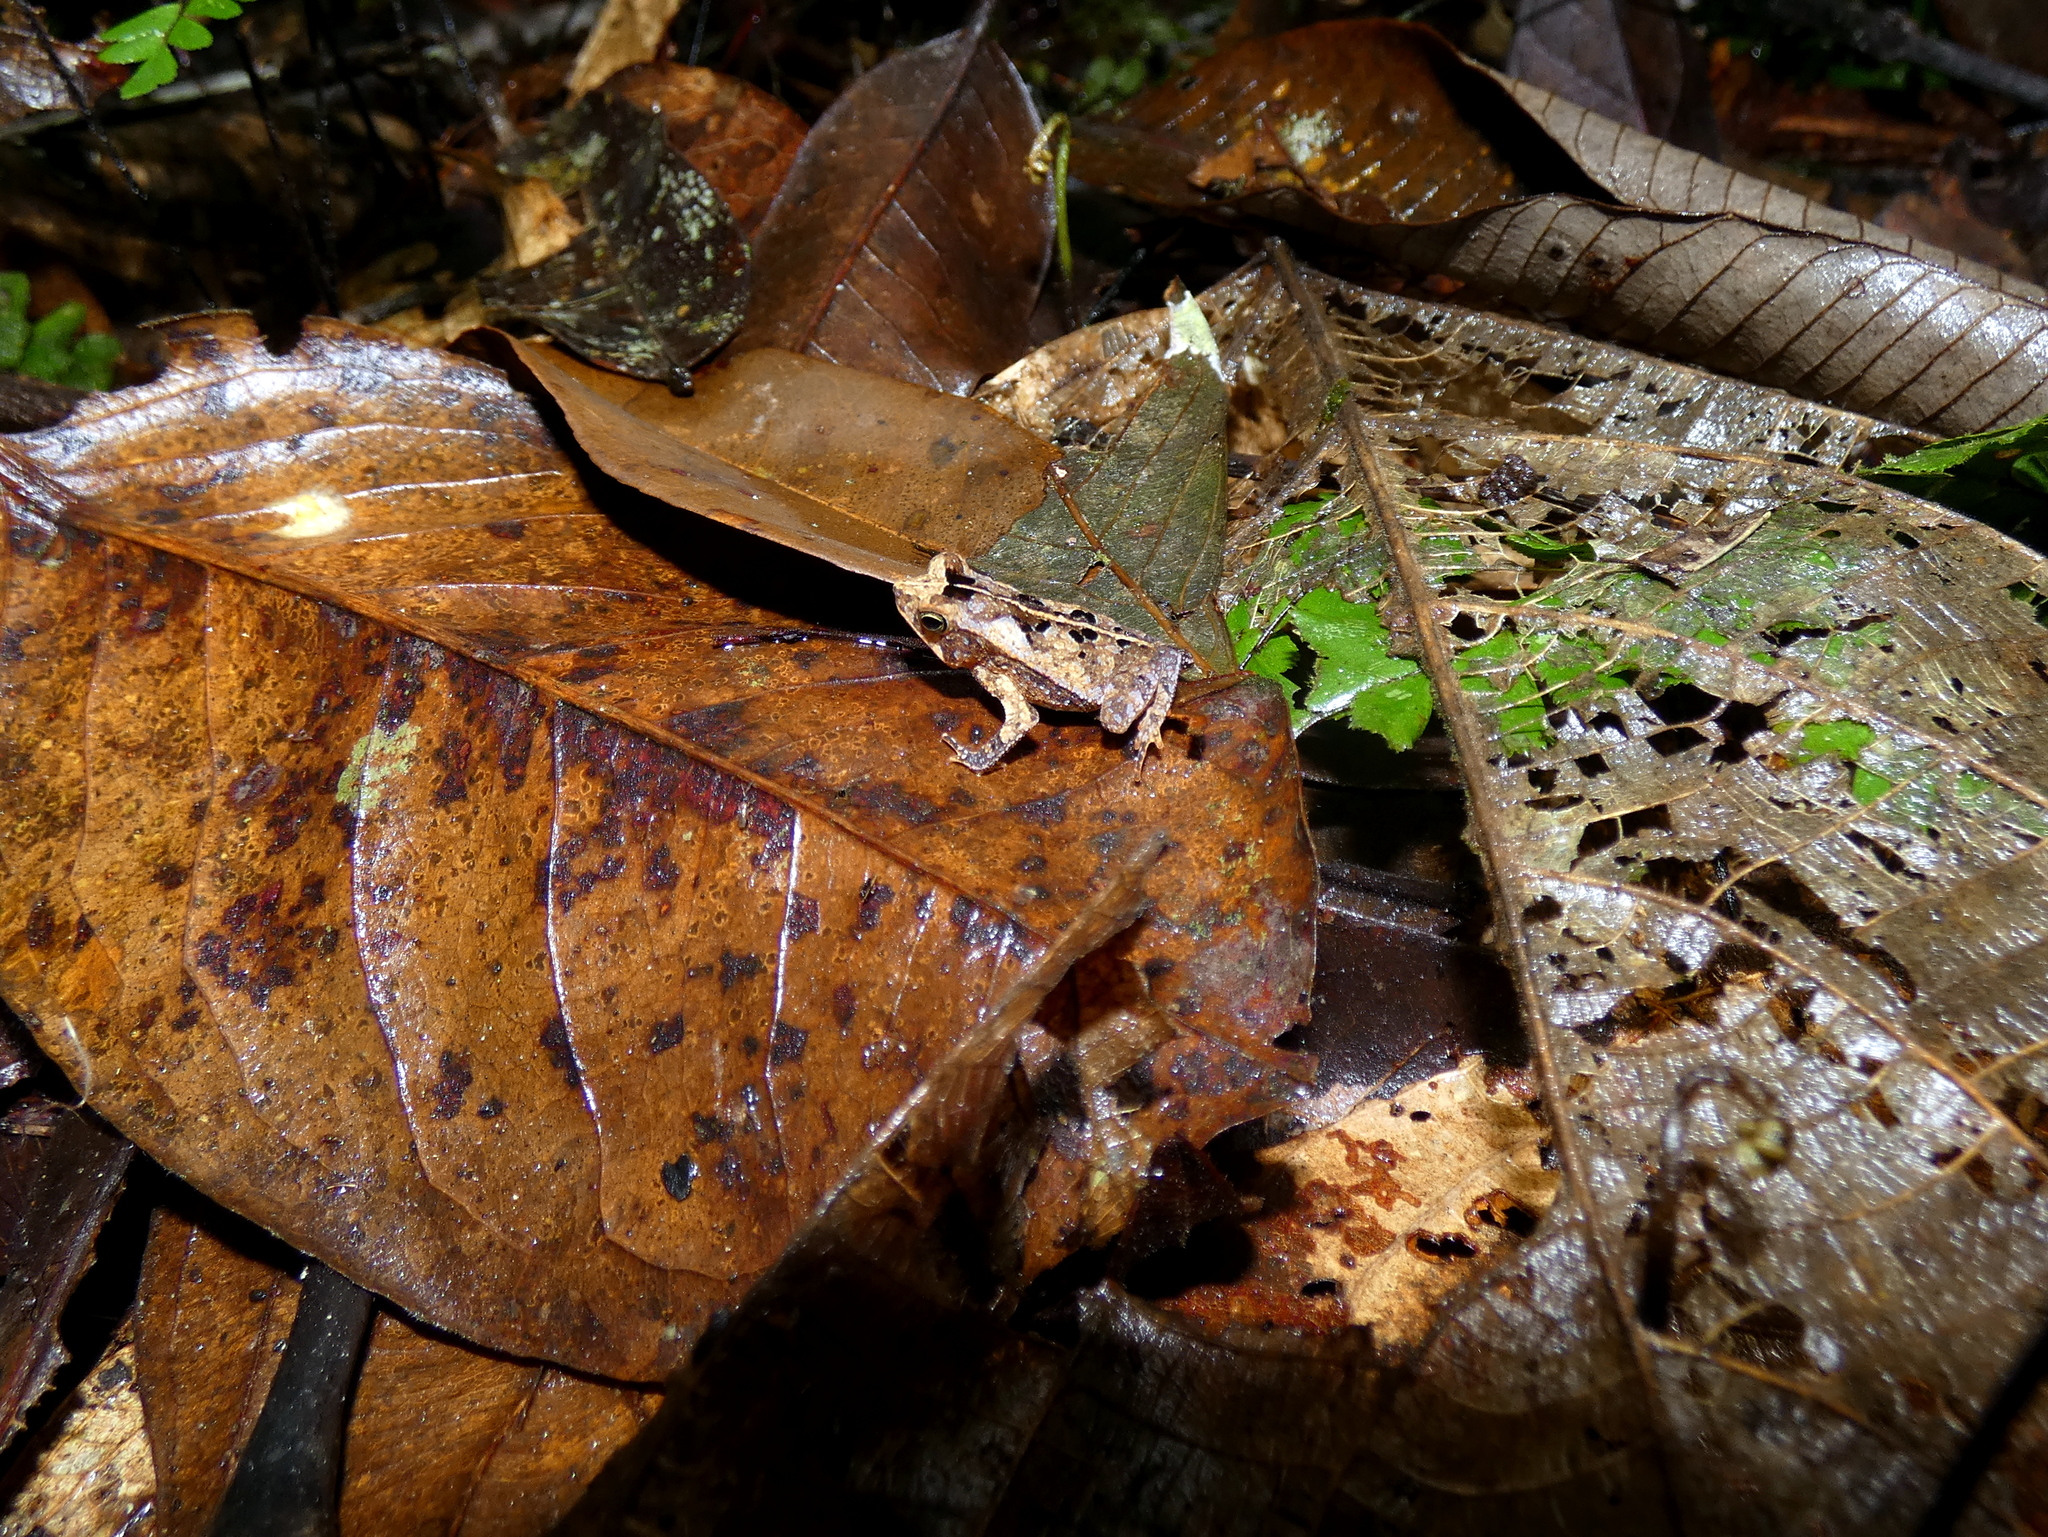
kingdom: Animalia
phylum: Chordata
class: Amphibia
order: Anura
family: Bufonidae
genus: Rhinella
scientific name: Rhinella margaritifera
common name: Mitred toad
